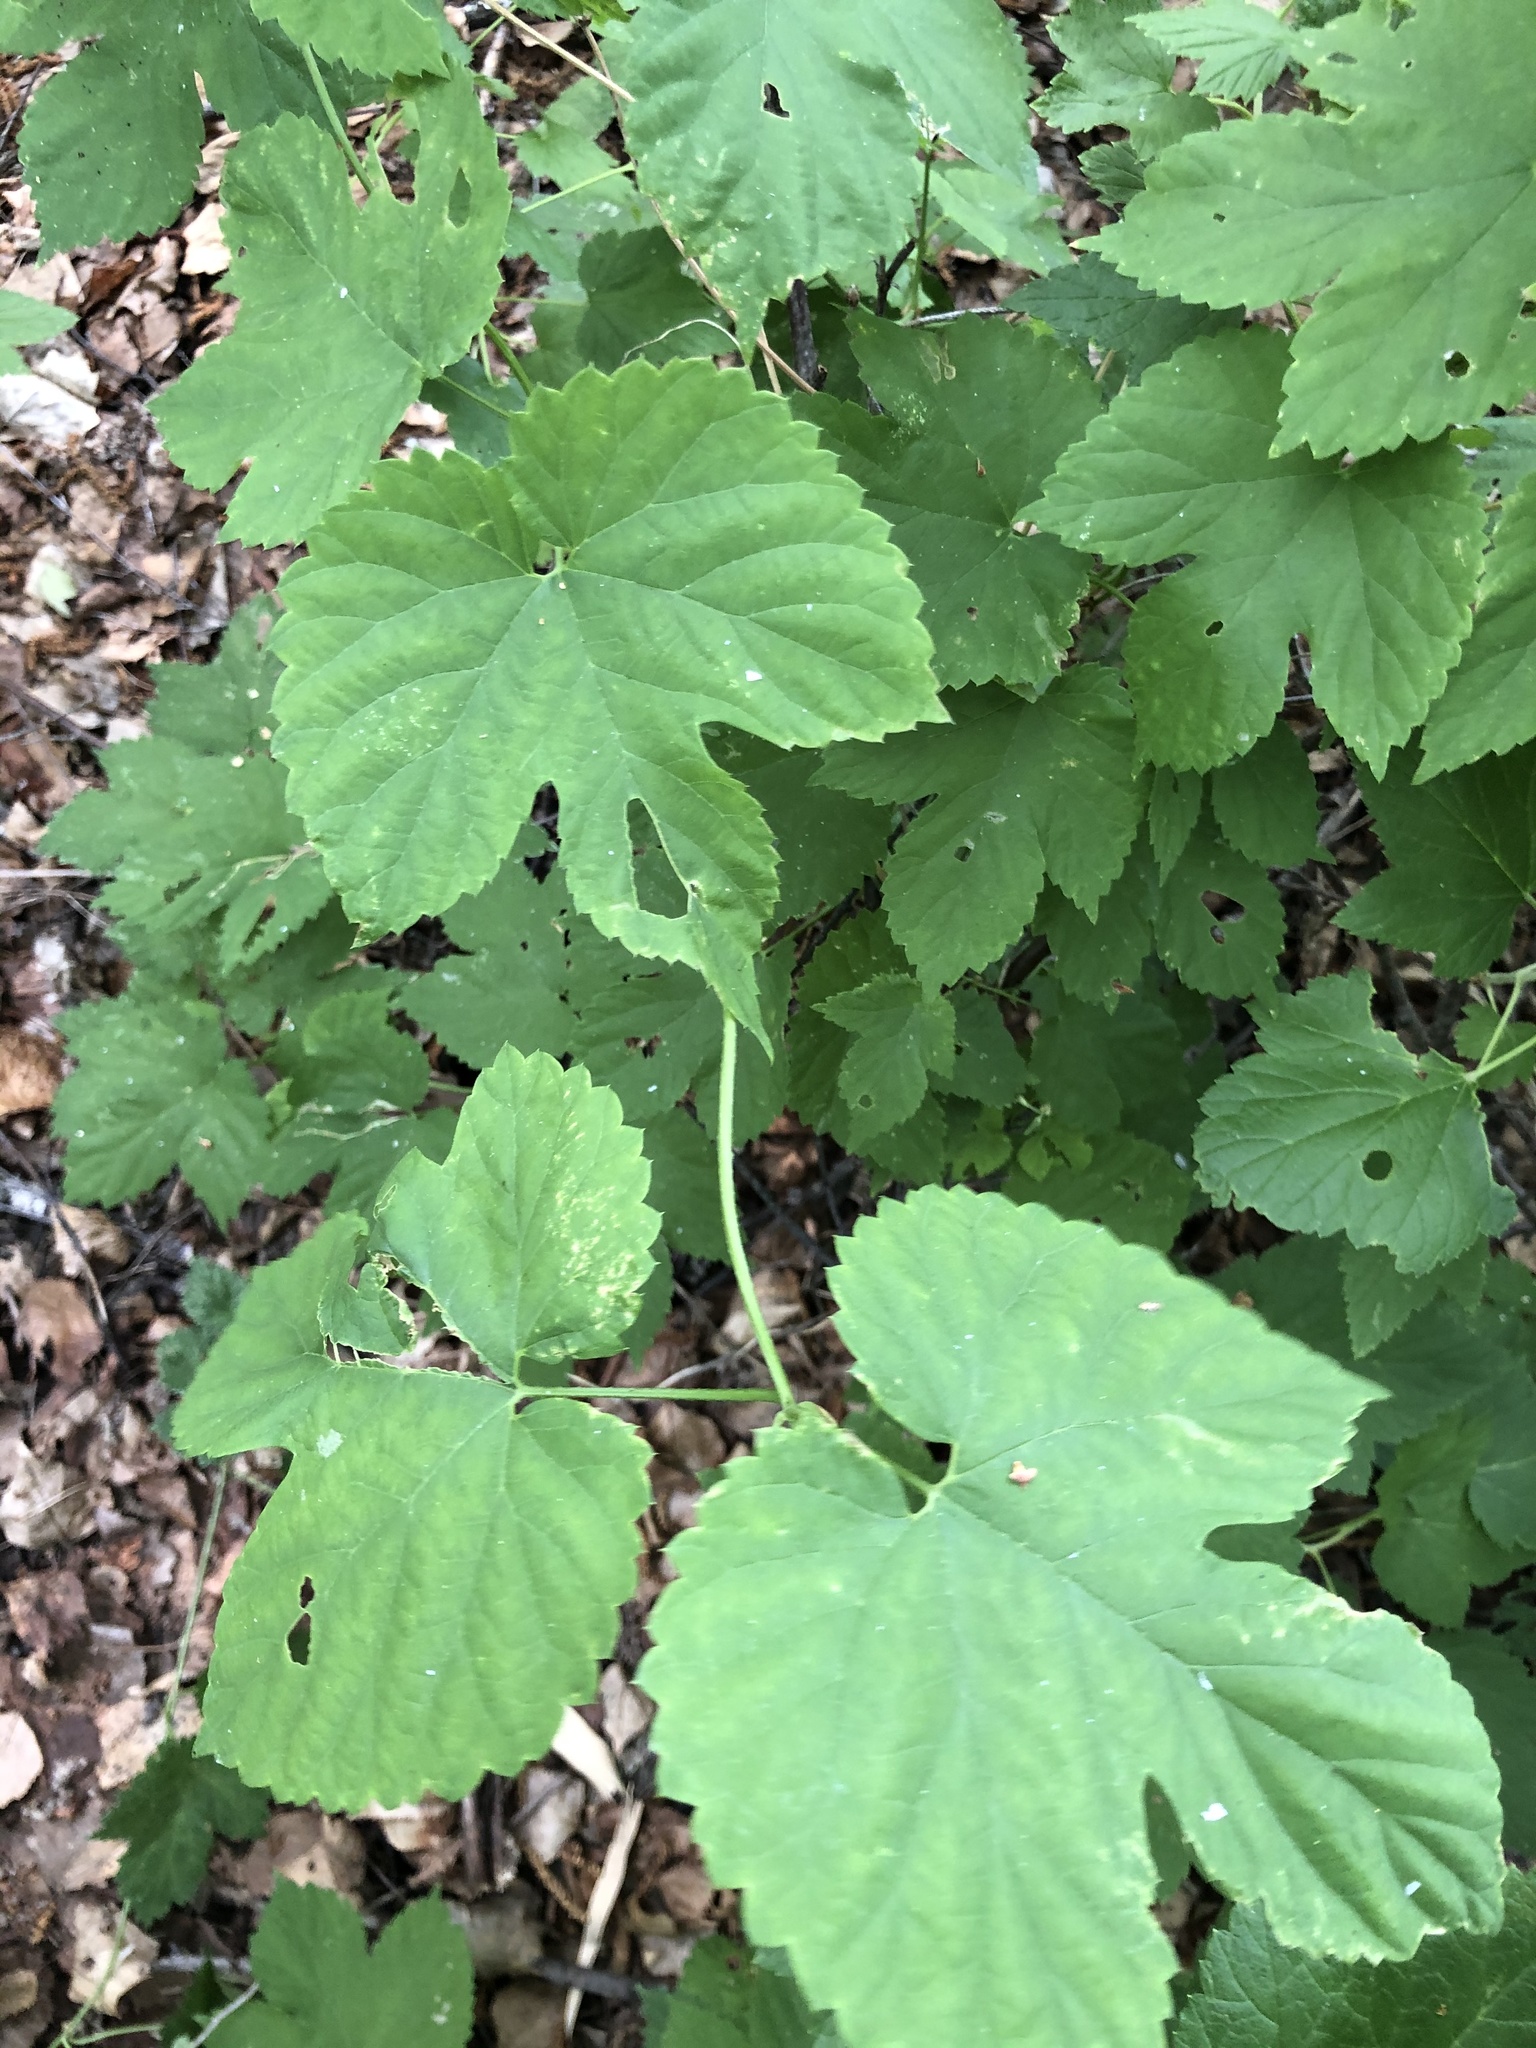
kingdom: Plantae
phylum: Tracheophyta
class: Magnoliopsida
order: Rosales
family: Cannabaceae
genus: Humulus
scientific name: Humulus lupulus
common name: Hop
